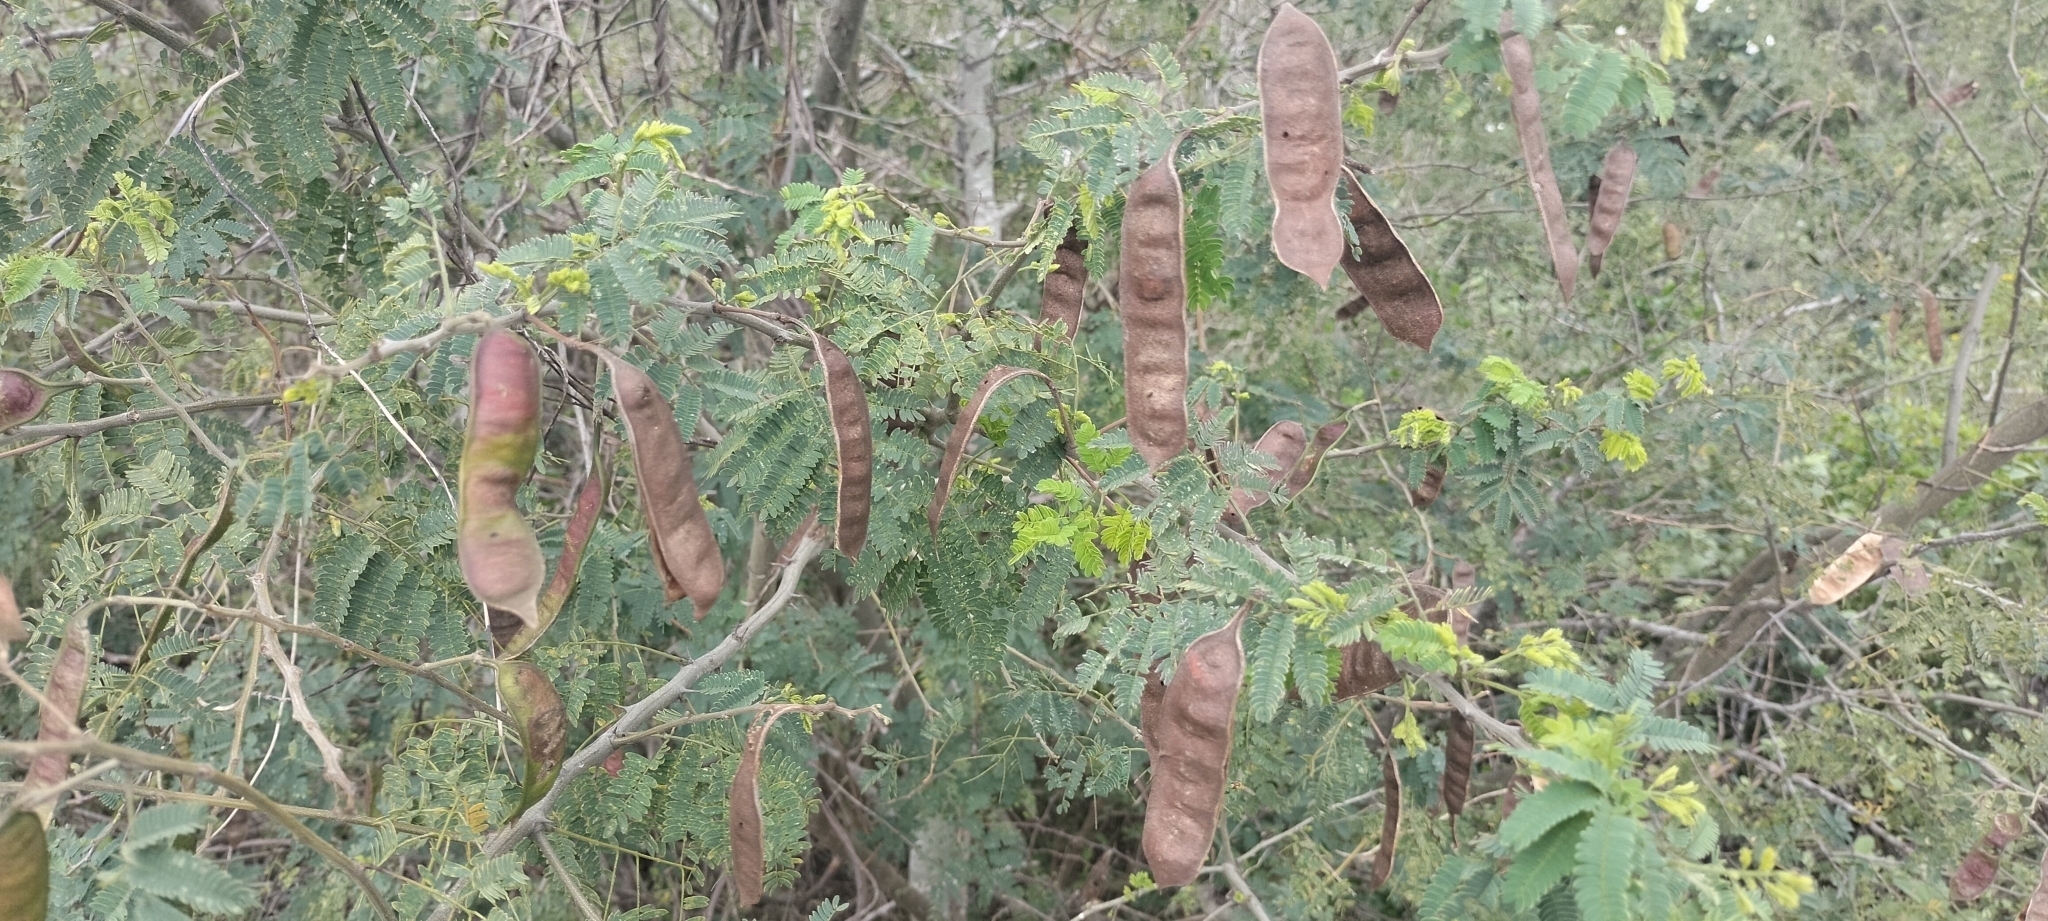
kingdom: Plantae
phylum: Tracheophyta
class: Magnoliopsida
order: Fabales
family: Fabaceae
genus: Havardia
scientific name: Havardia pallens
